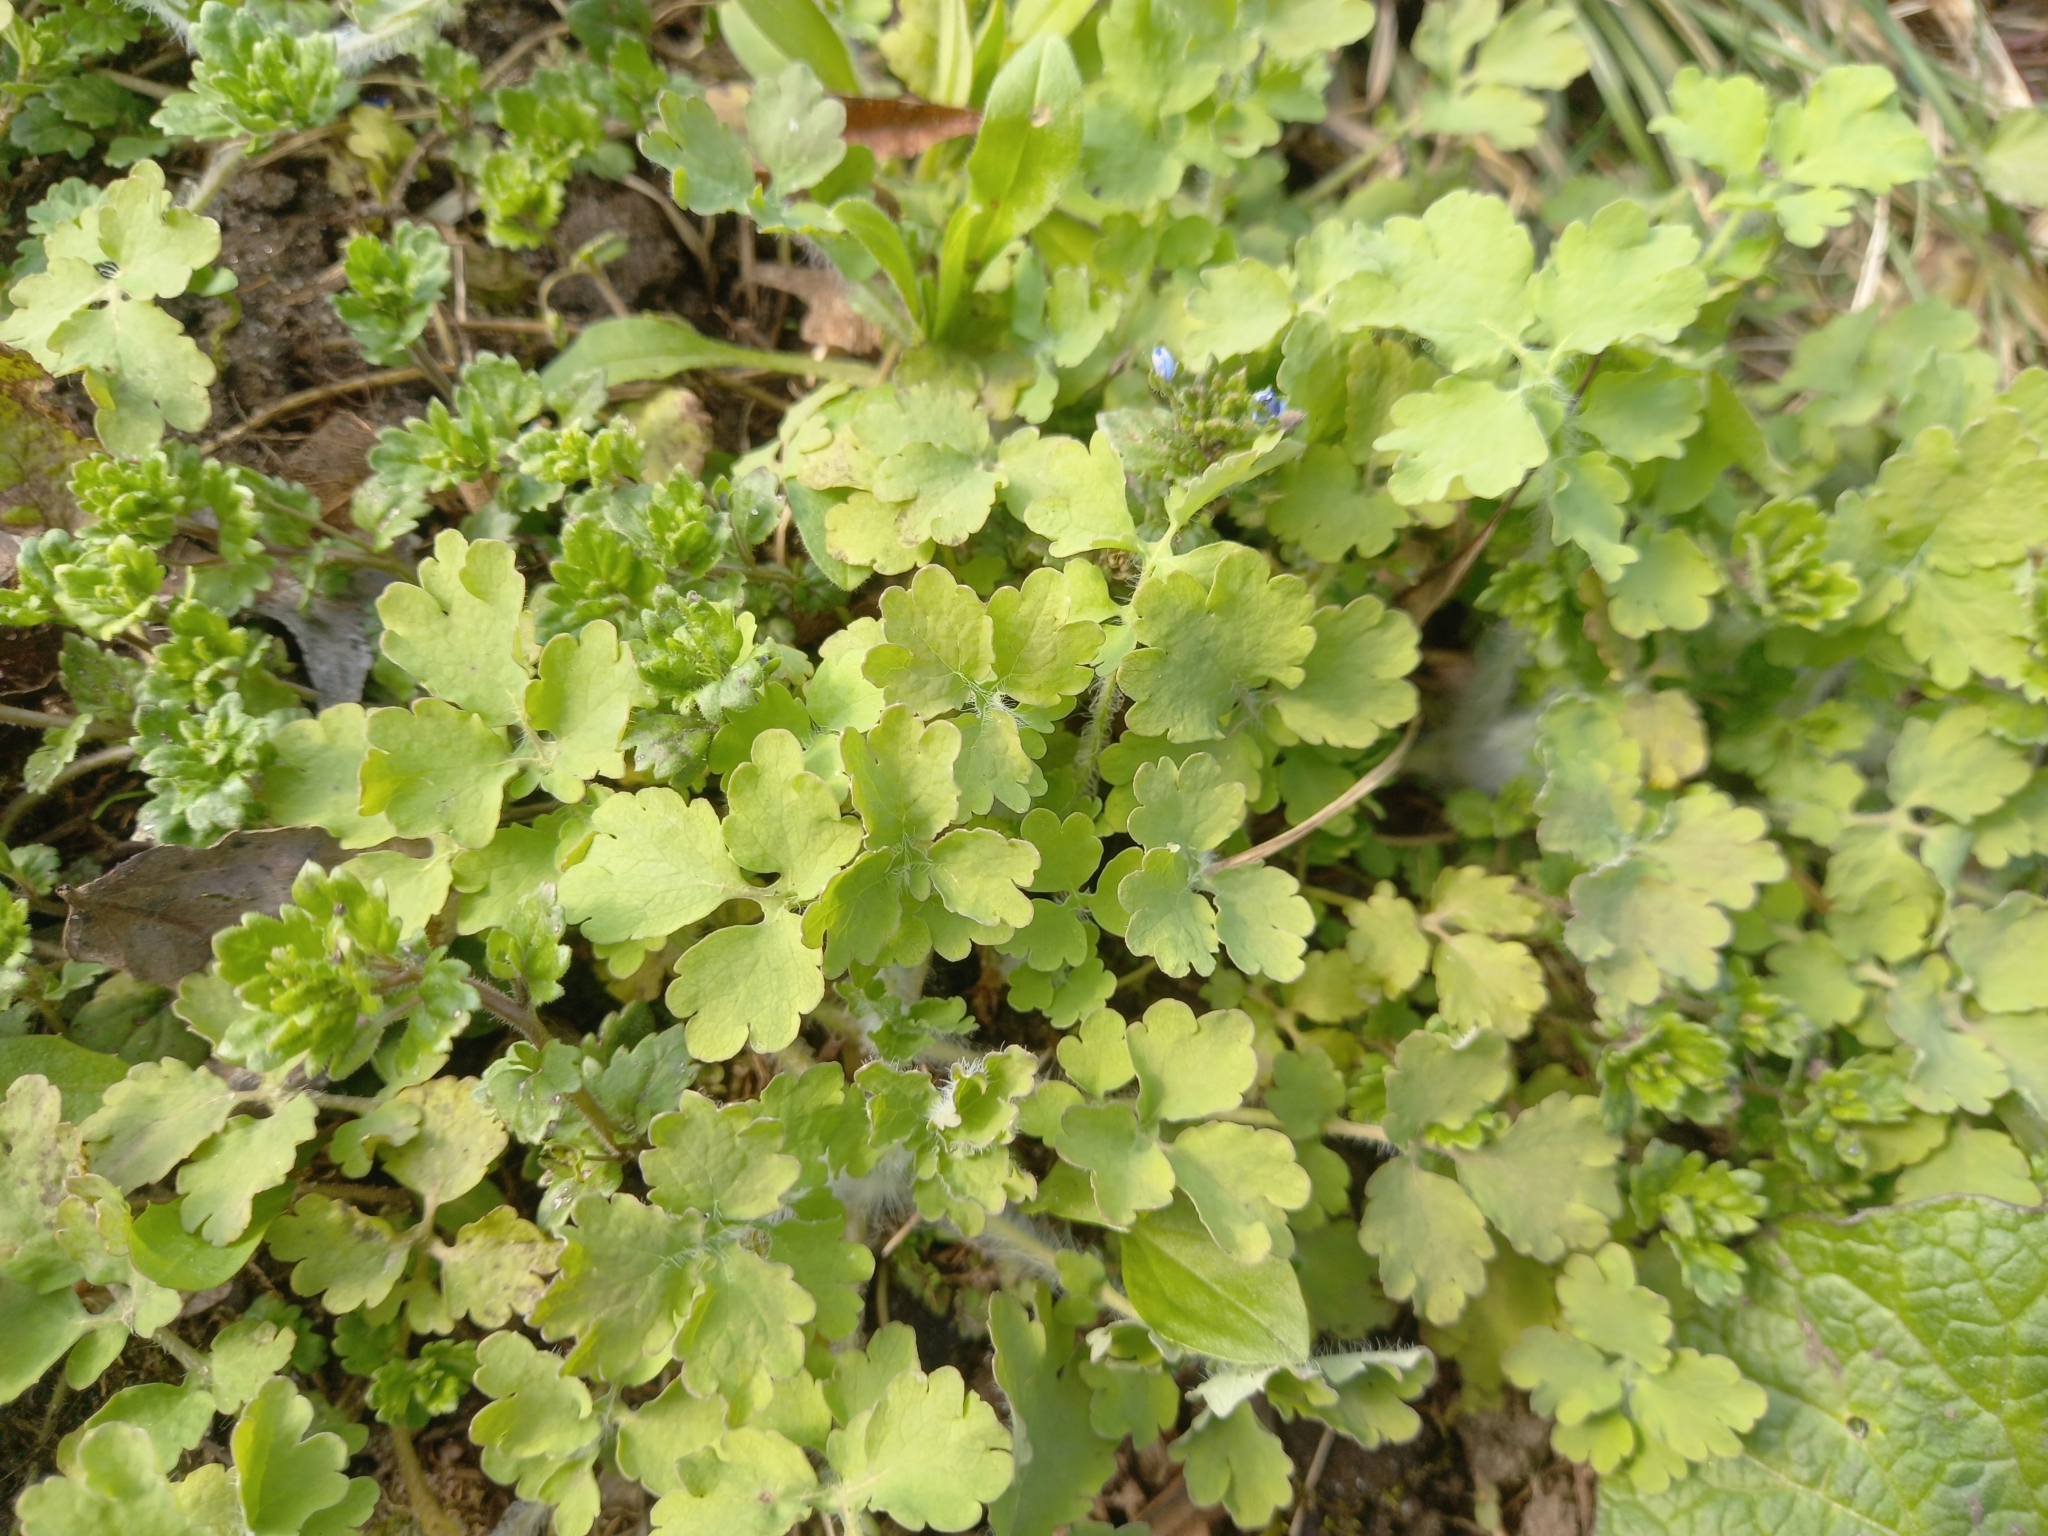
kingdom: Plantae
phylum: Tracheophyta
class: Magnoliopsida
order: Ranunculales
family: Papaveraceae
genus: Chelidonium
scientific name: Chelidonium majus
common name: Greater celandine
